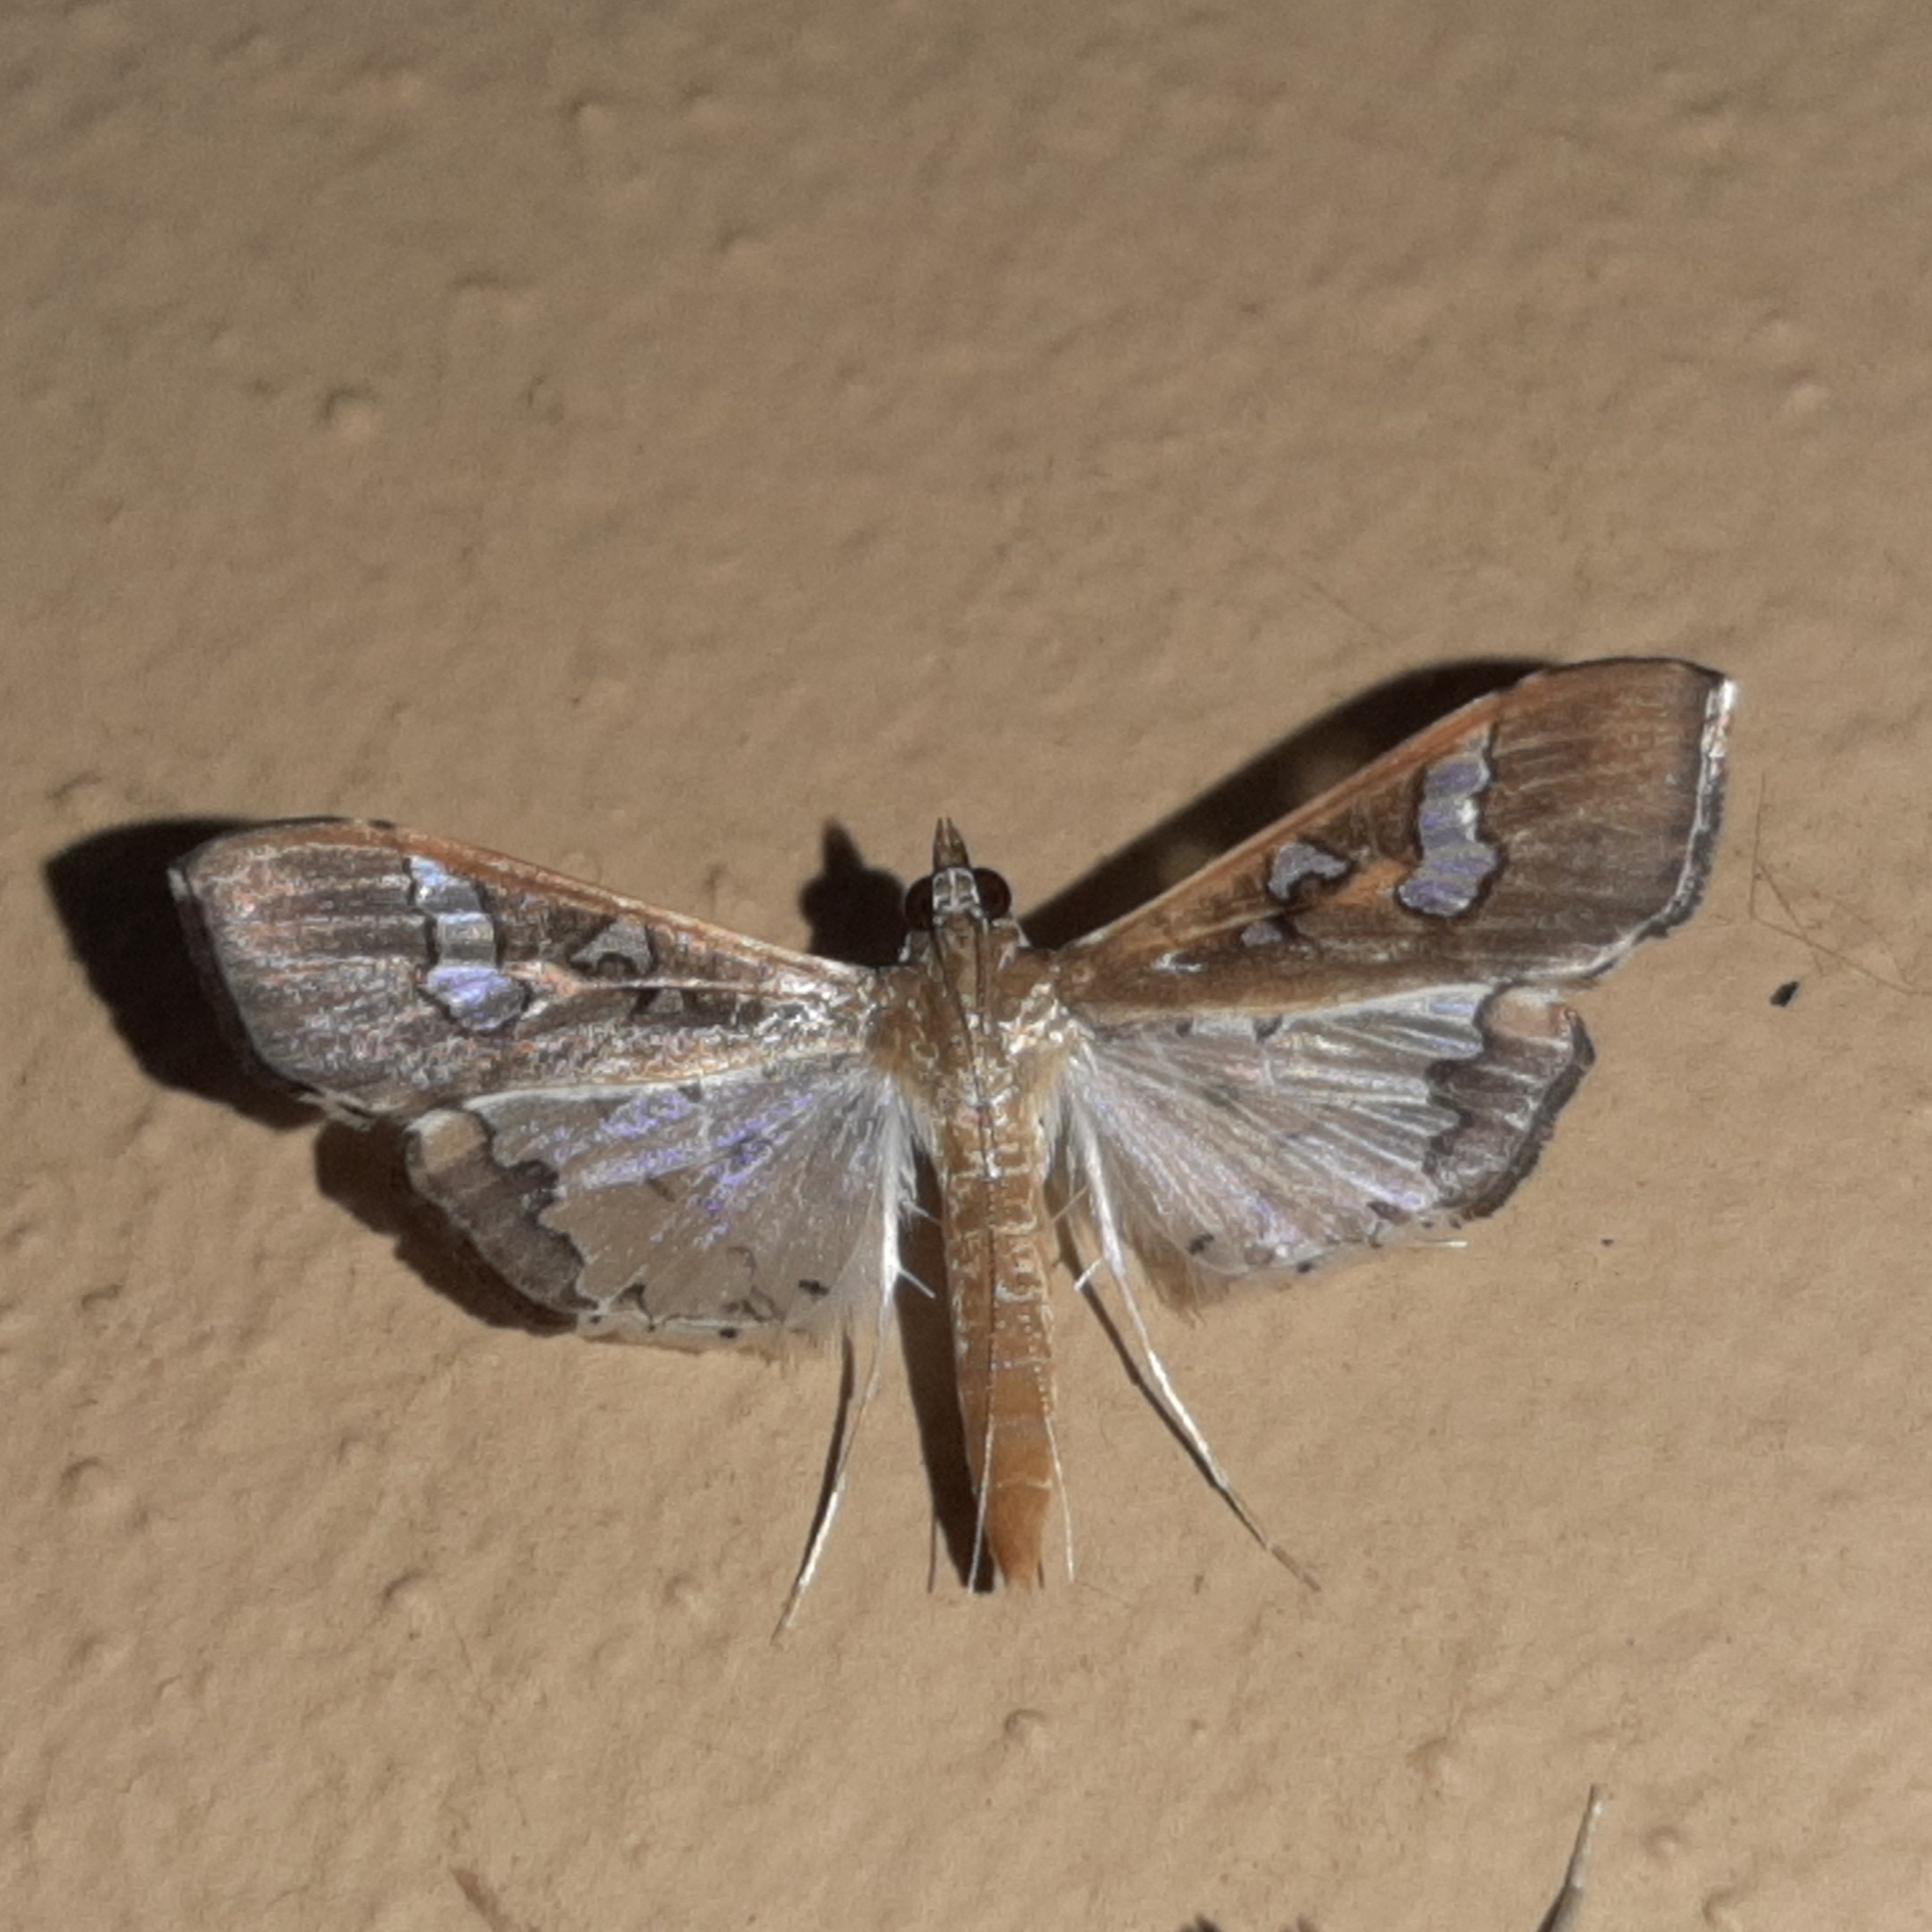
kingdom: Animalia
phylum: Arthropoda
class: Insecta
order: Lepidoptera
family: Crambidae
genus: Maruca
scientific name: Maruca vitrata
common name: Maruca pod borer
